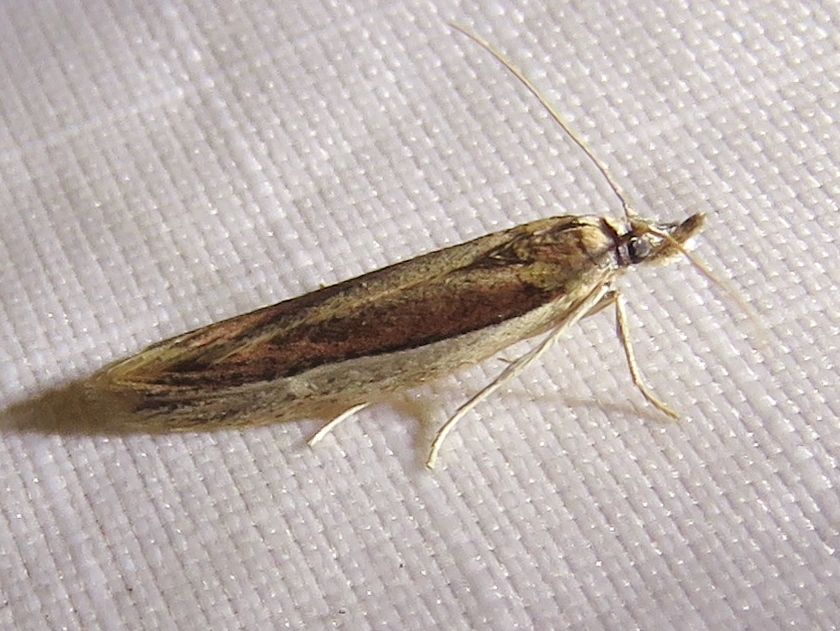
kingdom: Animalia
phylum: Arthropoda
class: Insecta
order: Lepidoptera
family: Pyralidae
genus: Tampa
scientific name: Tampa dimediatella
